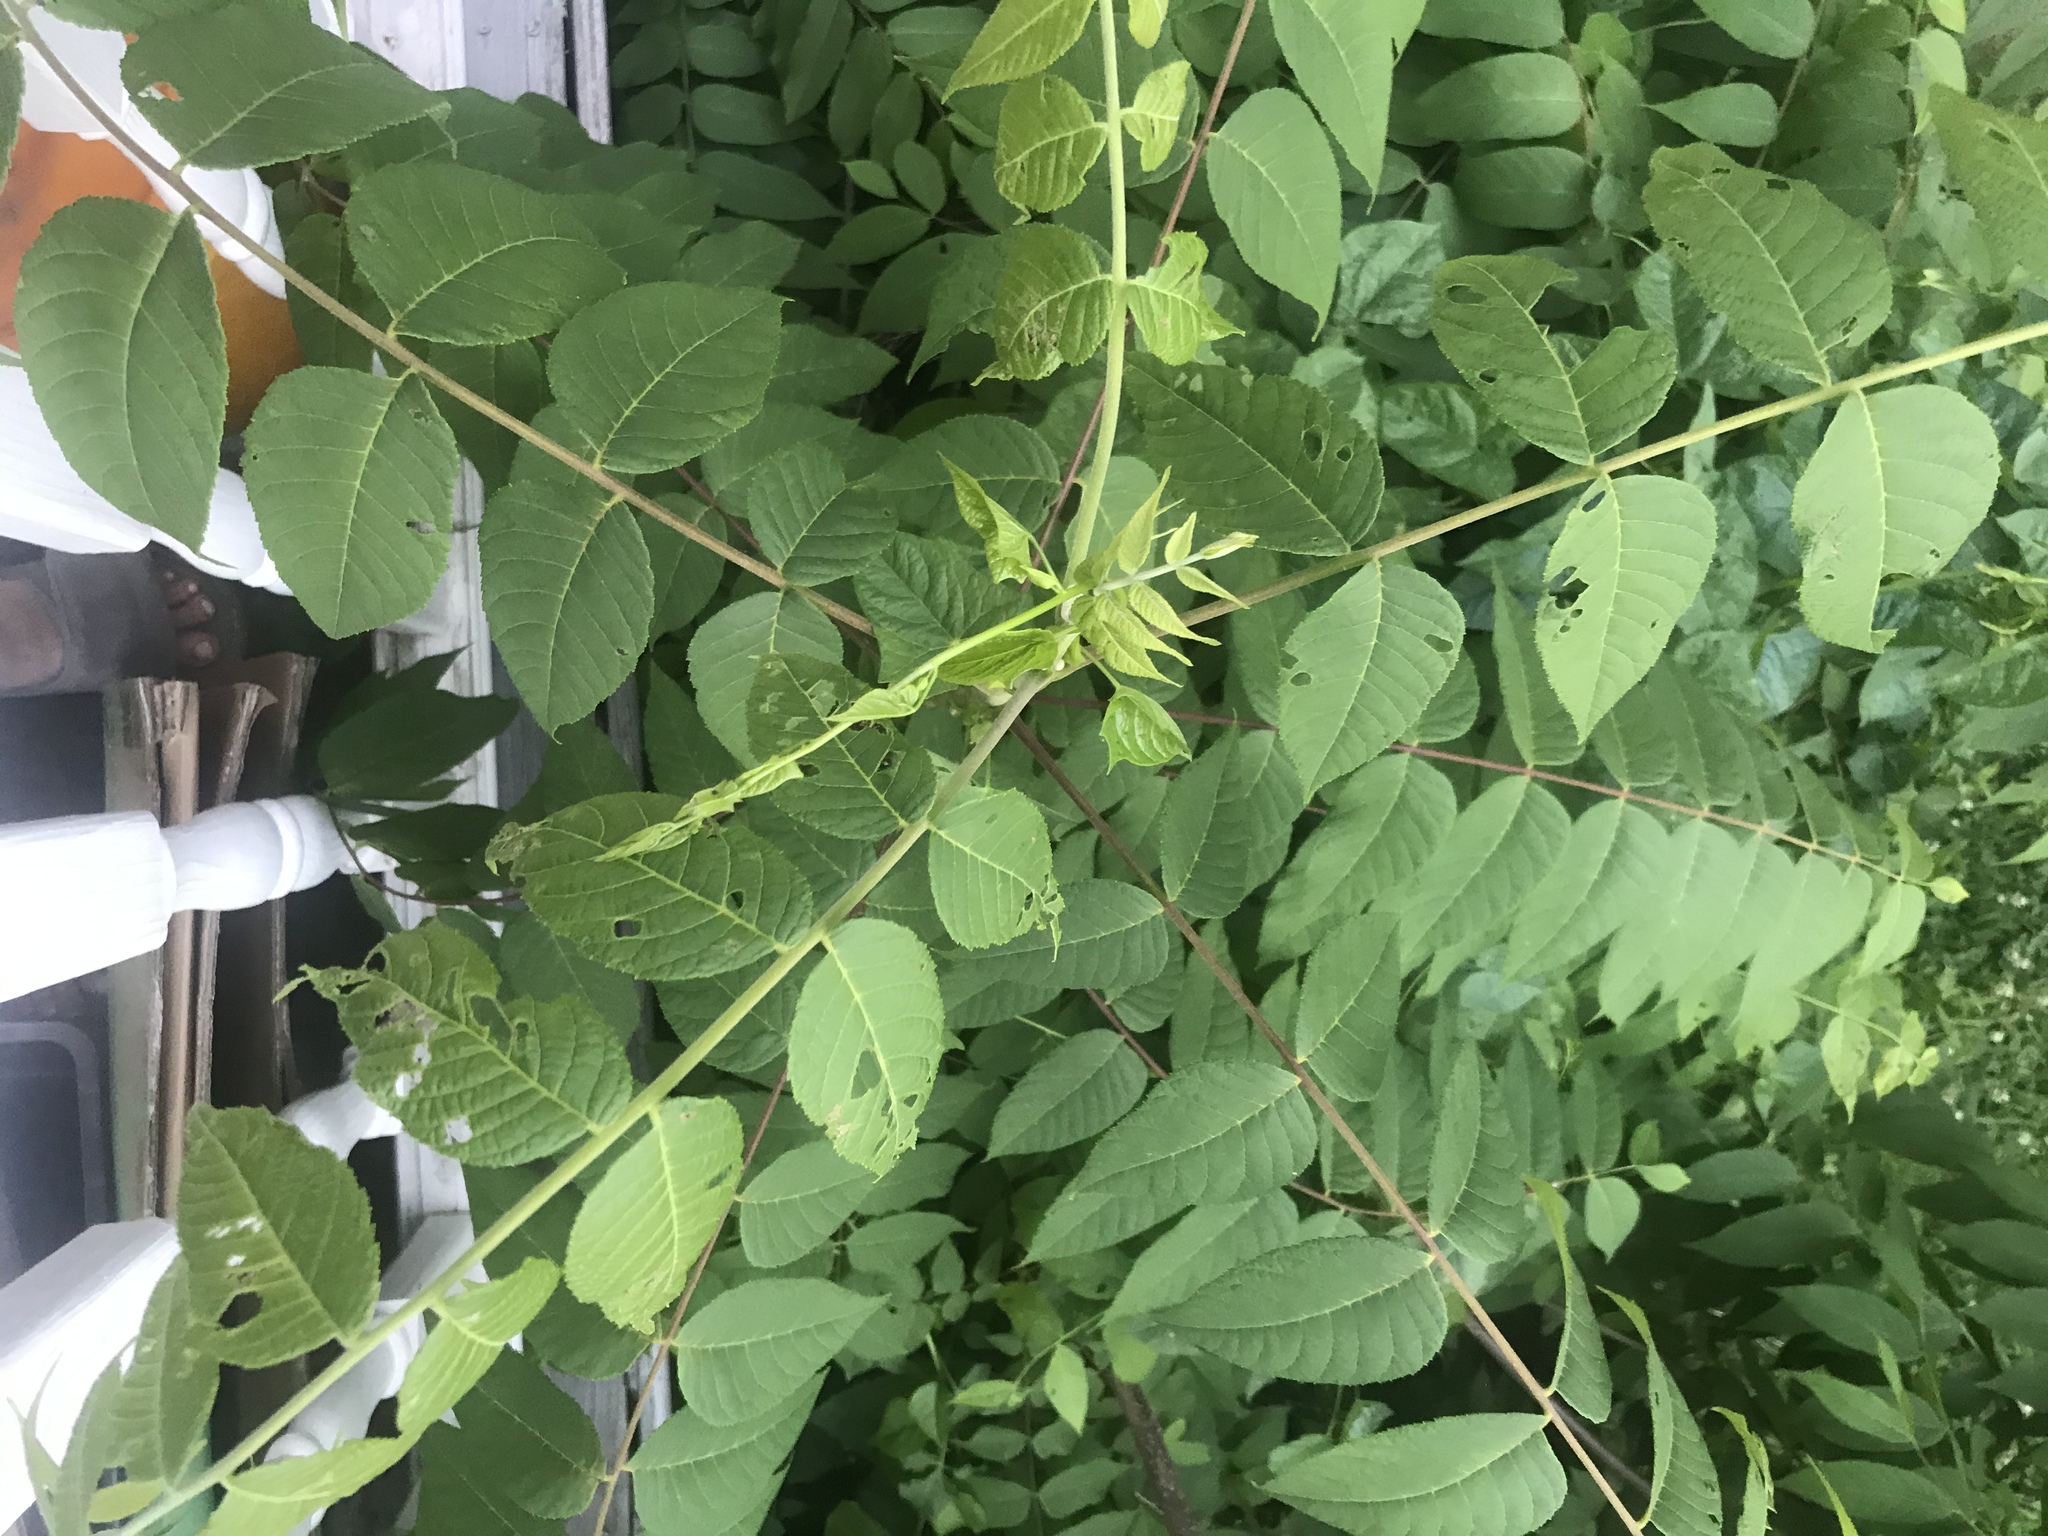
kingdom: Plantae
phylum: Tracheophyta
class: Magnoliopsida
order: Fagales
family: Juglandaceae
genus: Juglans
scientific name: Juglans nigra
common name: Black walnut
